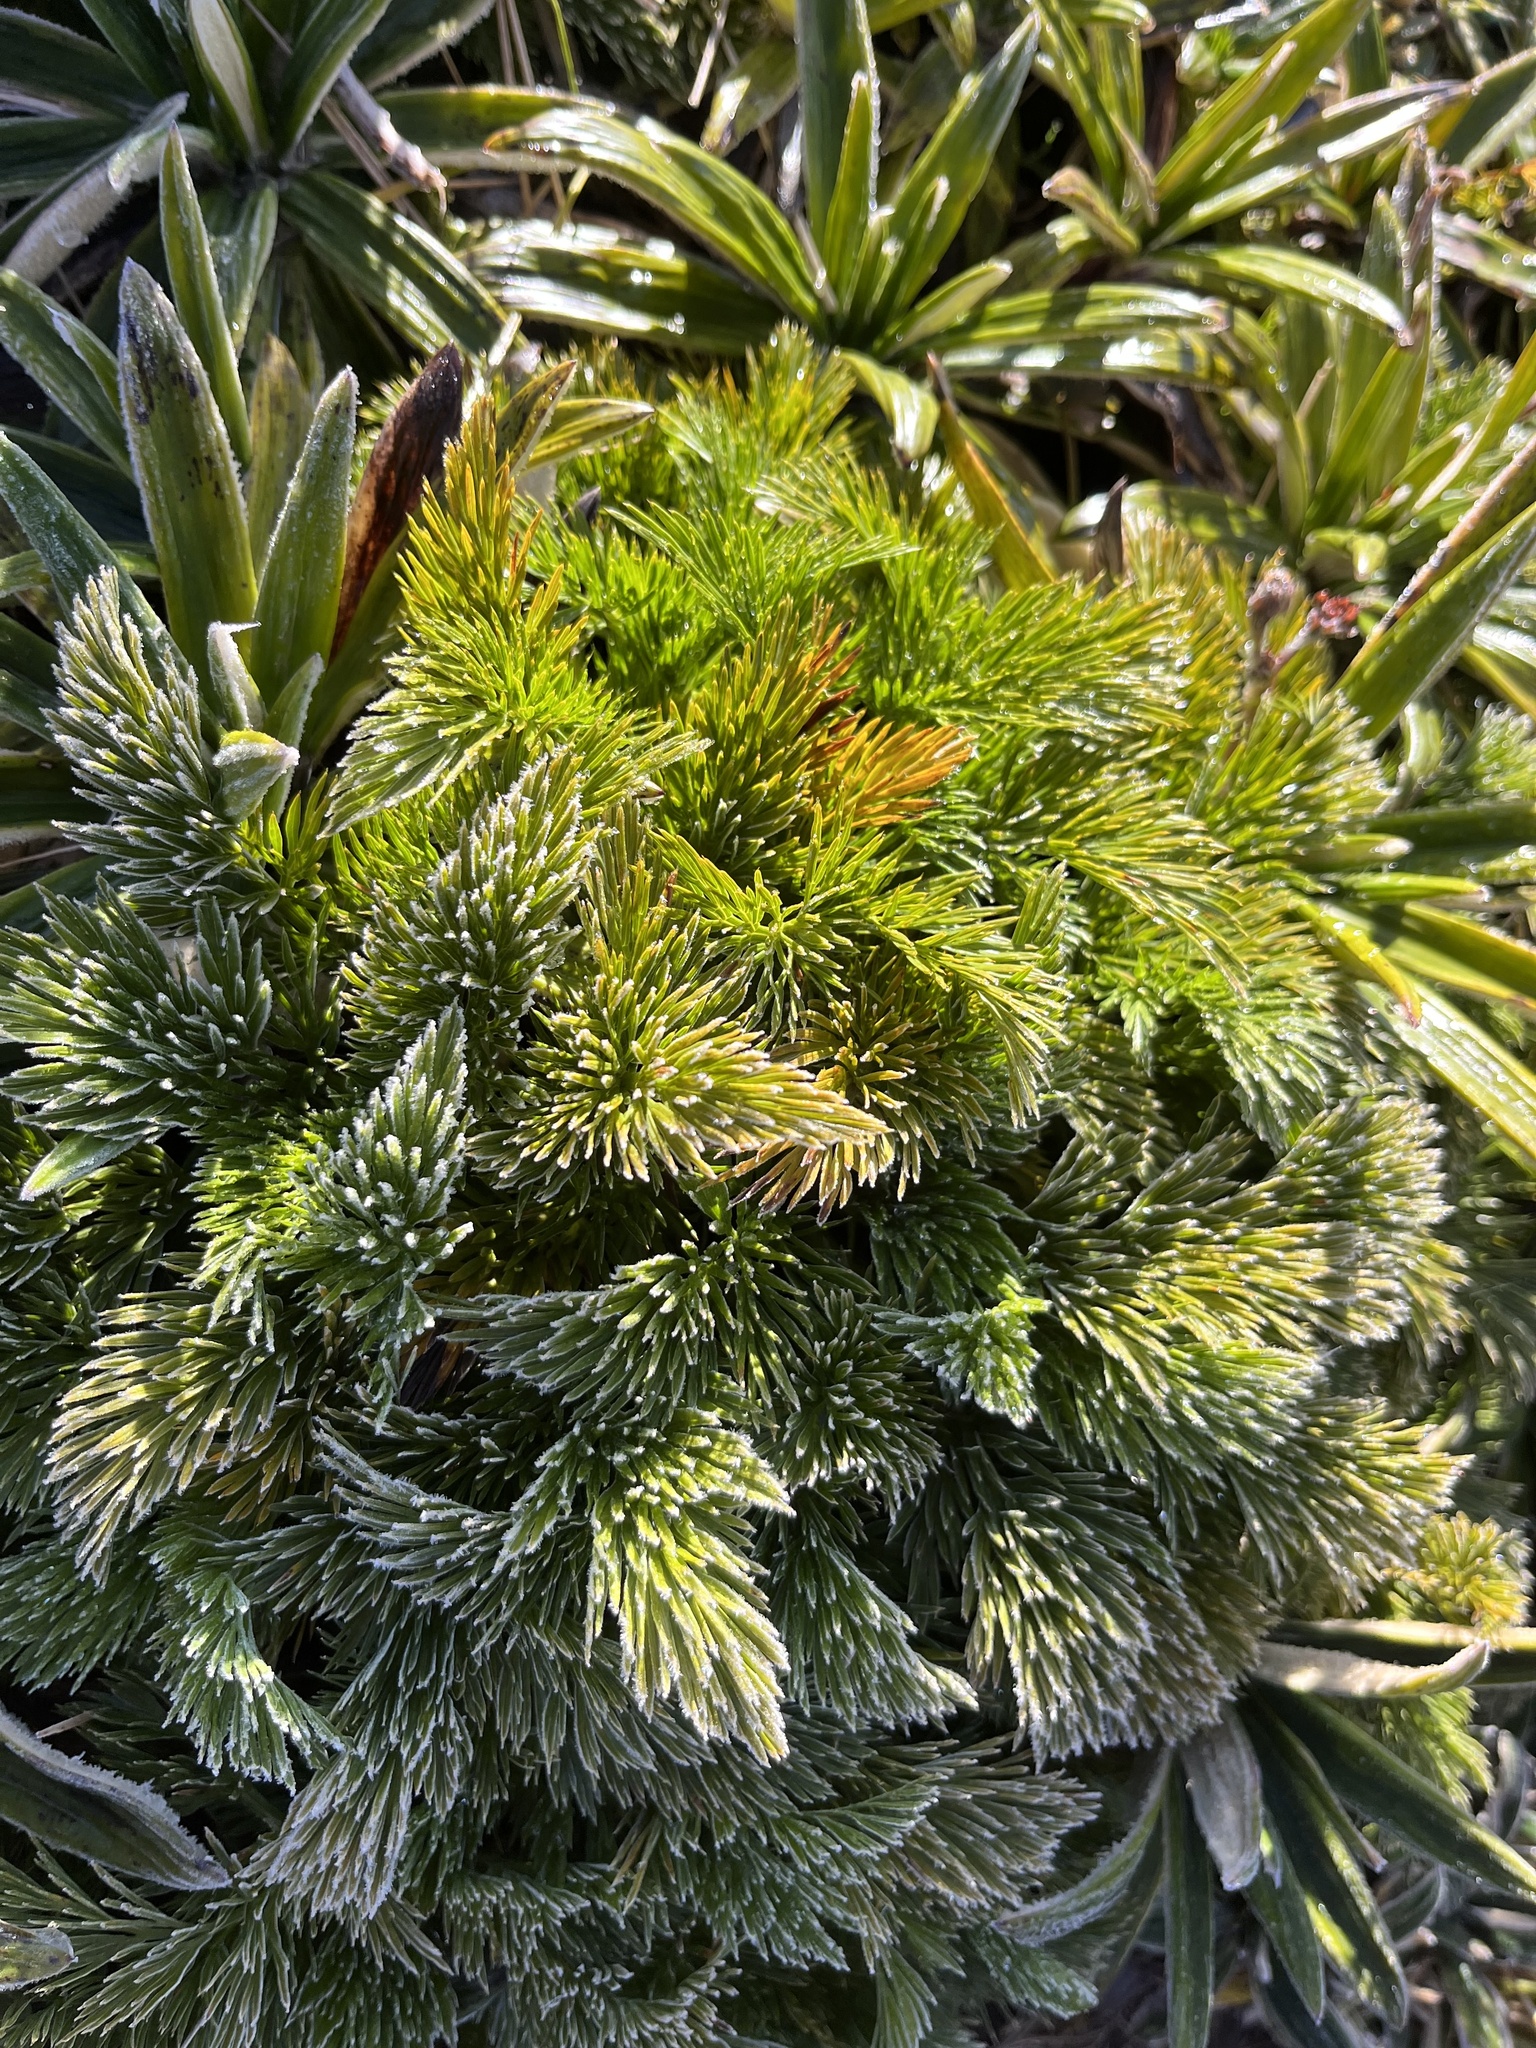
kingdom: Plantae
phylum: Tracheophyta
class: Magnoliopsida
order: Apiales
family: Apiaceae
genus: Aciphylla
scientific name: Aciphylla dissecta
